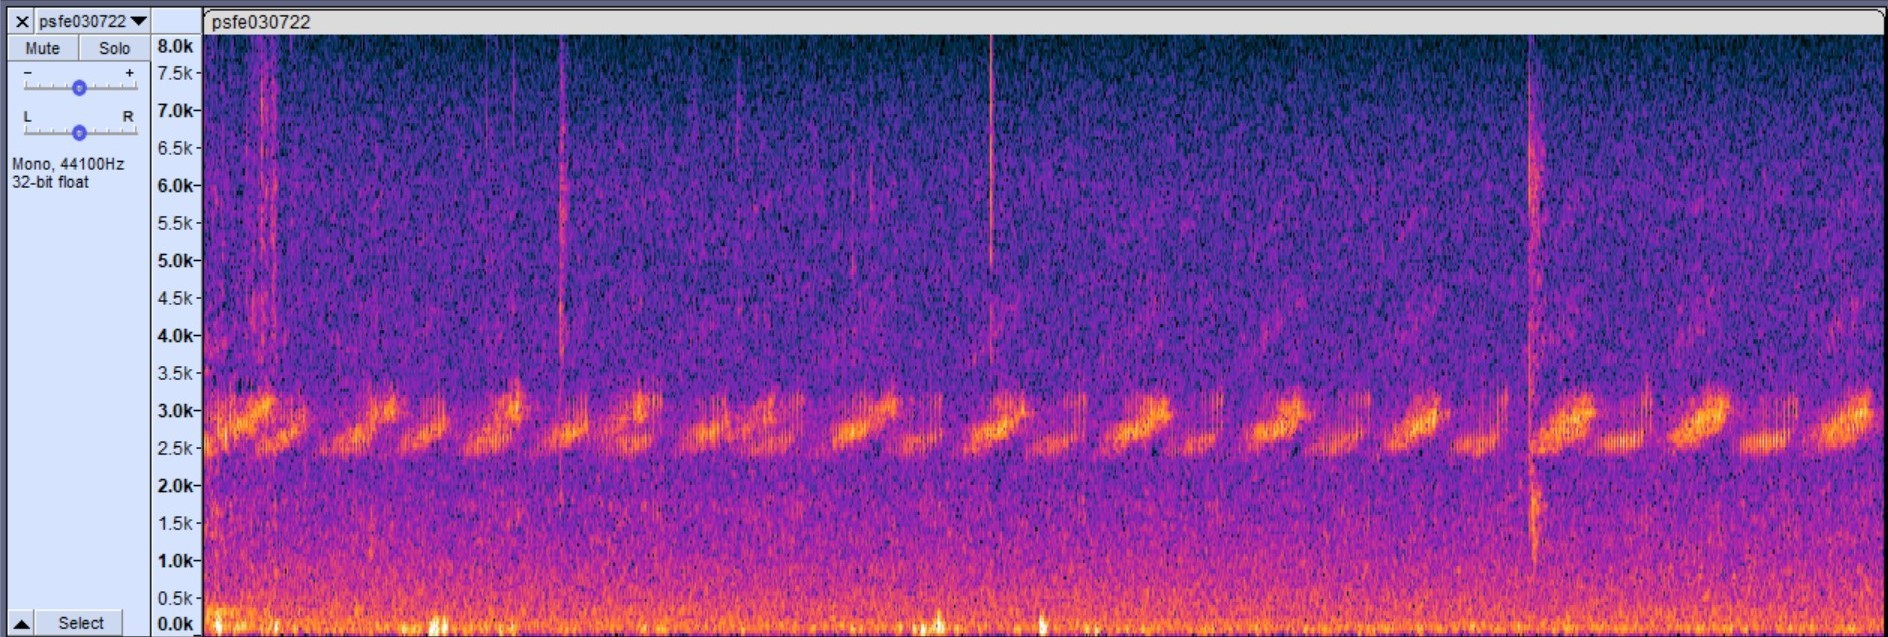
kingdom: Animalia
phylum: Chordata
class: Amphibia
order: Anura
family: Hylidae
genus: Pseudacris
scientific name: Pseudacris feriarum
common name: Upland chorus frog
